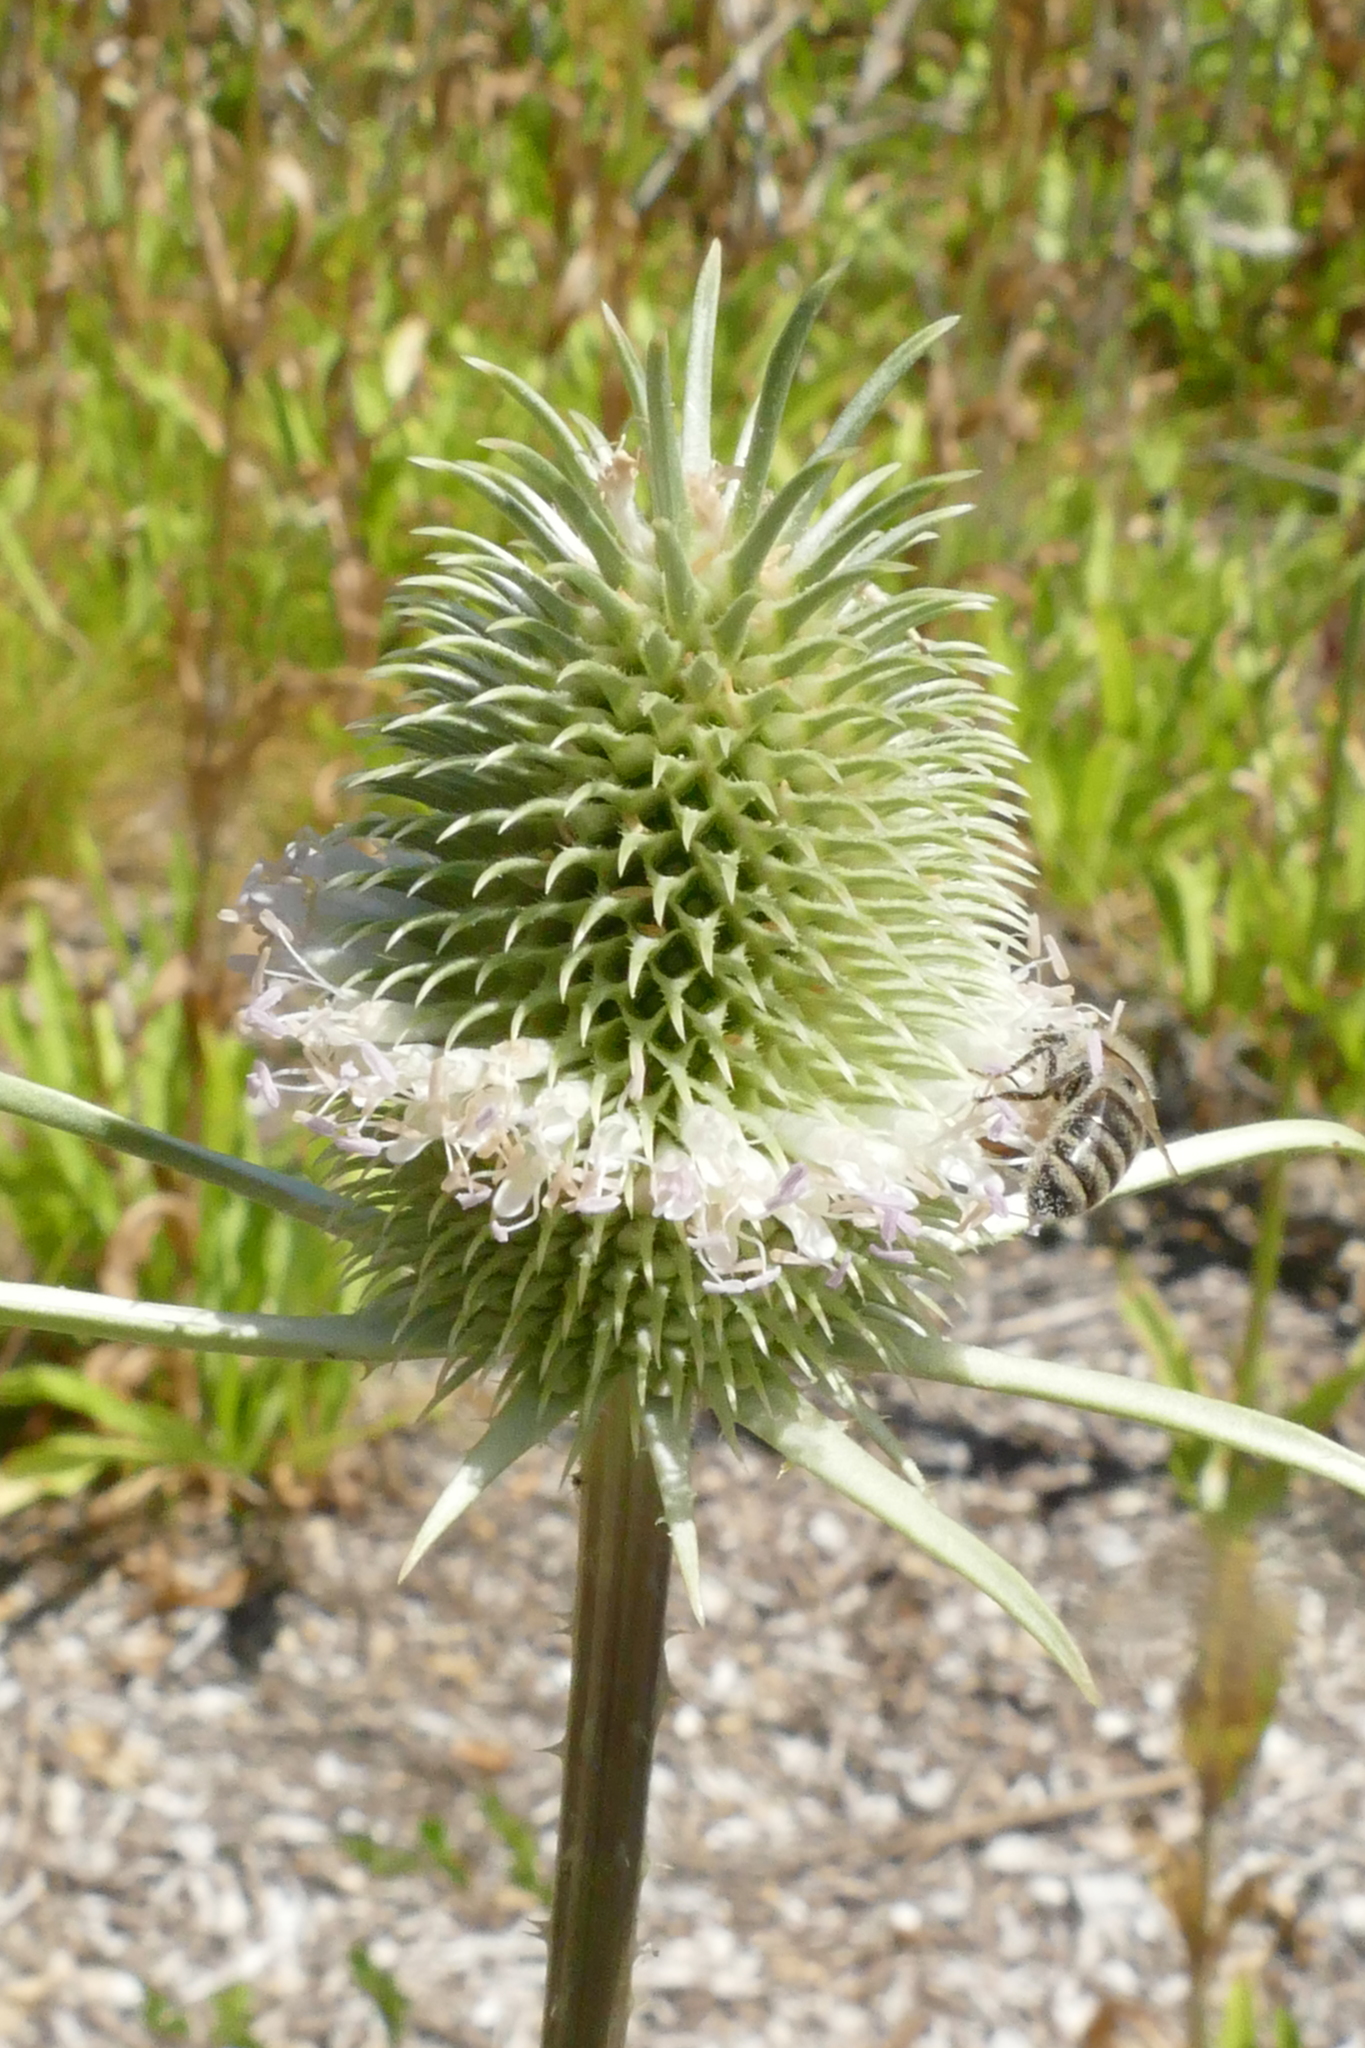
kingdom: Plantae
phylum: Tracheophyta
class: Magnoliopsida
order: Dipsacales
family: Caprifoliaceae
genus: Dipsacus
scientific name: Dipsacus sativus
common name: Fuller's teasel
